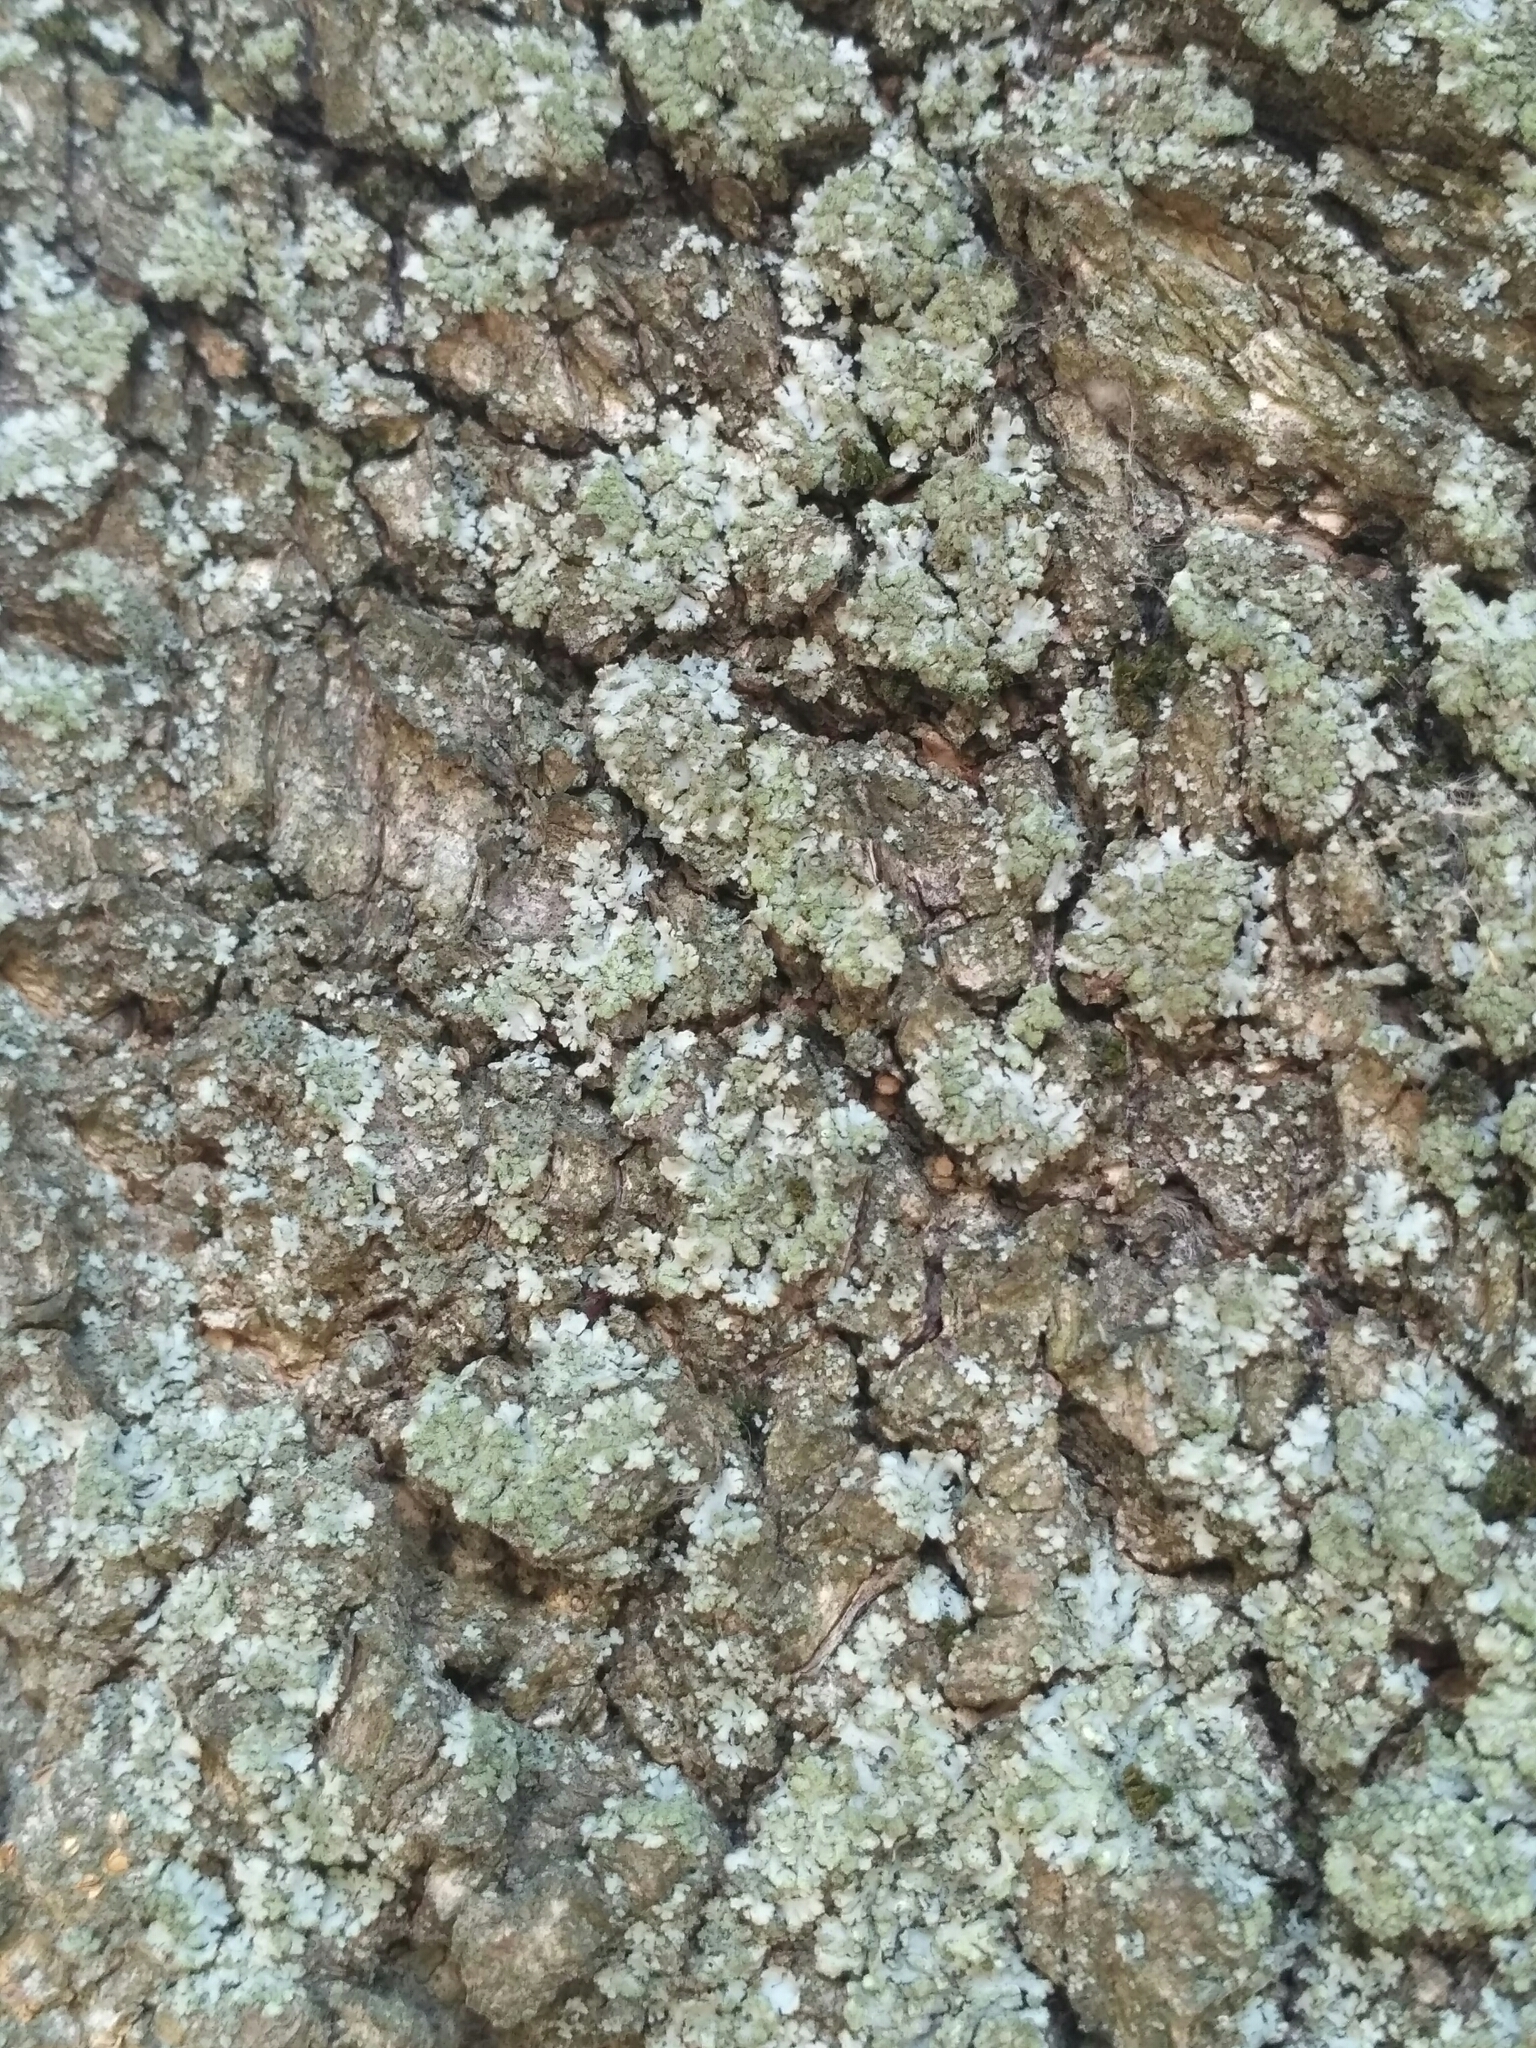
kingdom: Fungi
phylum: Ascomycota
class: Lecanoromycetes
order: Caliciales
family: Physciaceae
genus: Phaeophyscia
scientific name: Phaeophyscia orbicularis
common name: Mealy shadow lichen
